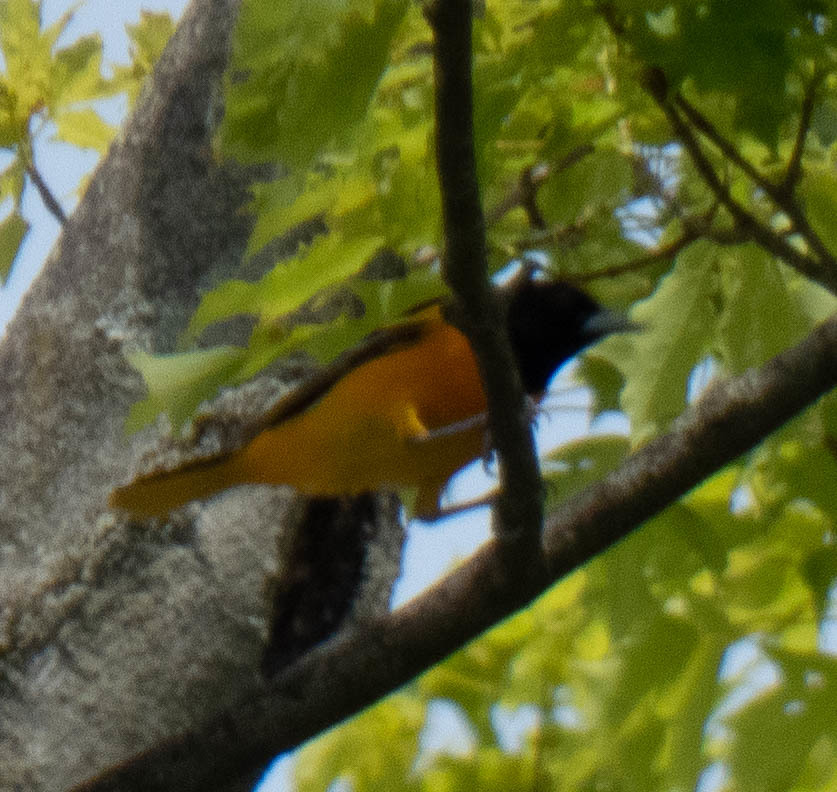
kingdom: Animalia
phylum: Chordata
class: Aves
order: Passeriformes
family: Icteridae
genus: Icterus
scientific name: Icterus galbula
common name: Baltimore oriole
